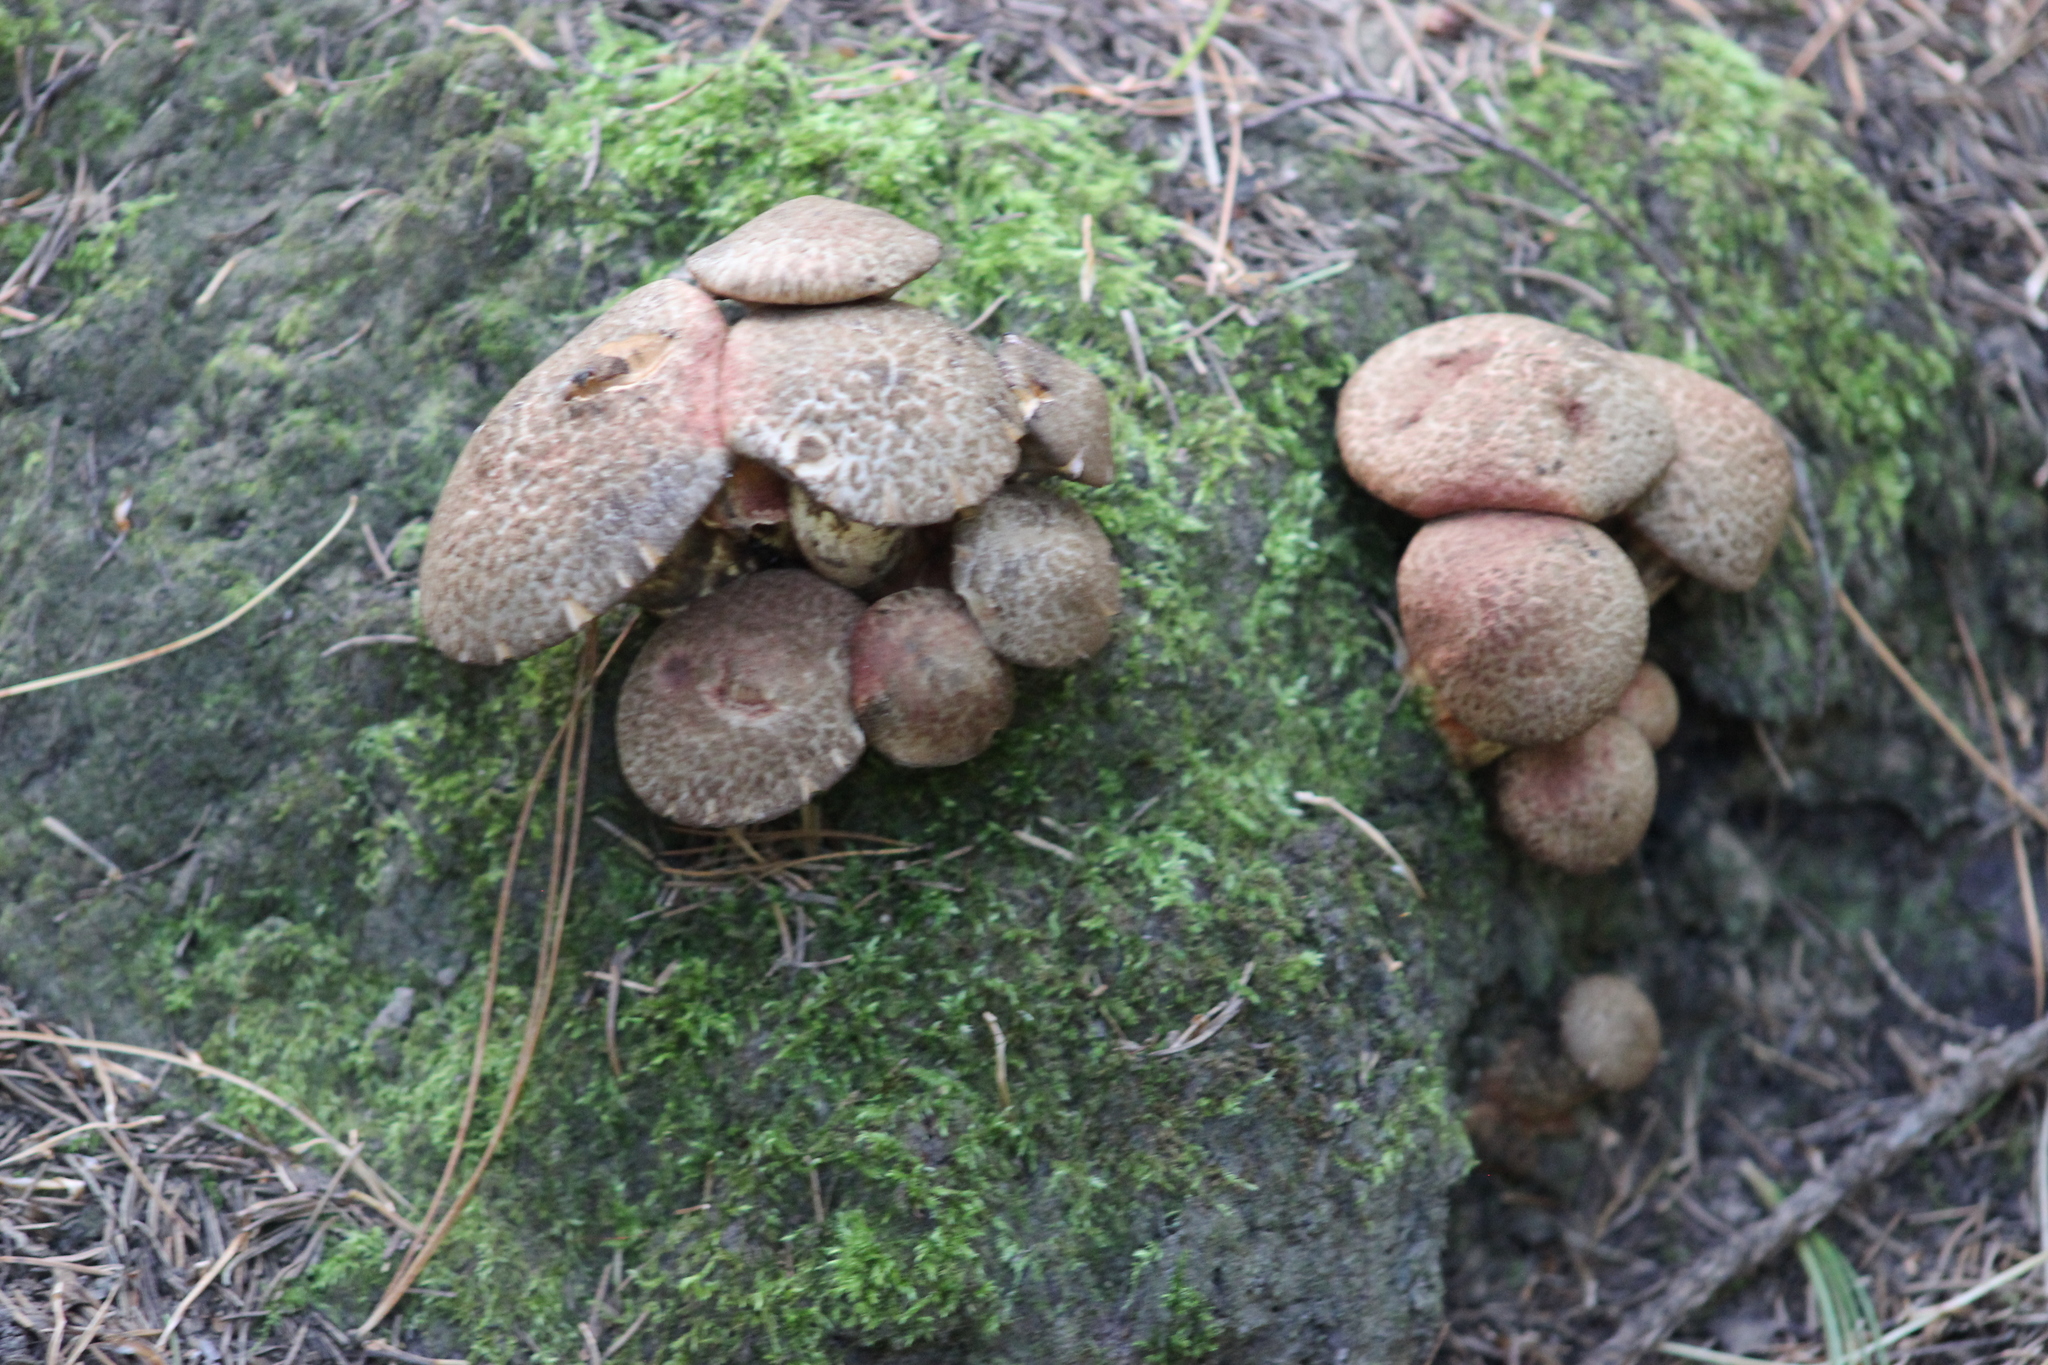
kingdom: Fungi
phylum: Basidiomycota
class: Agaricomycetes
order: Boletales
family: Suillaceae
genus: Suillus
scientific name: Suillus spraguei
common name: Painted suillus
